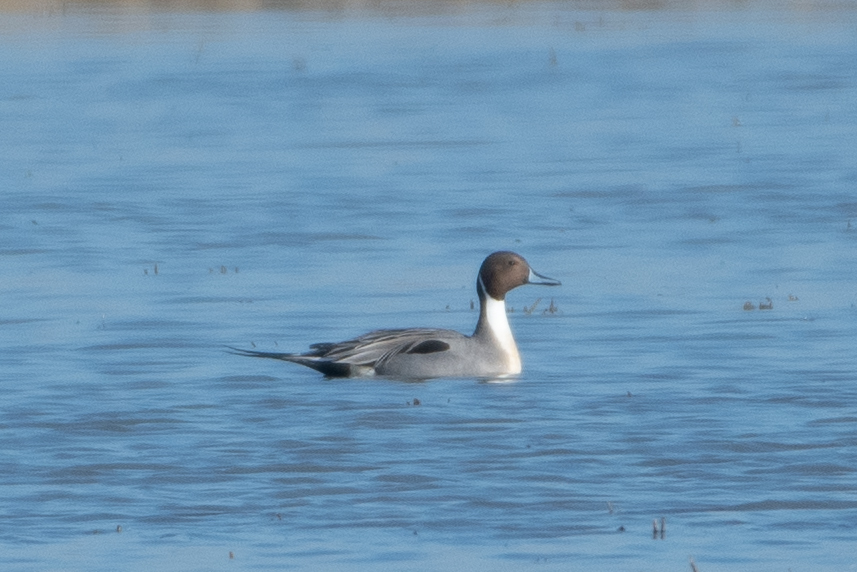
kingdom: Animalia
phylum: Chordata
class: Aves
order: Anseriformes
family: Anatidae
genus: Anas
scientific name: Anas acuta
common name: Northern pintail
